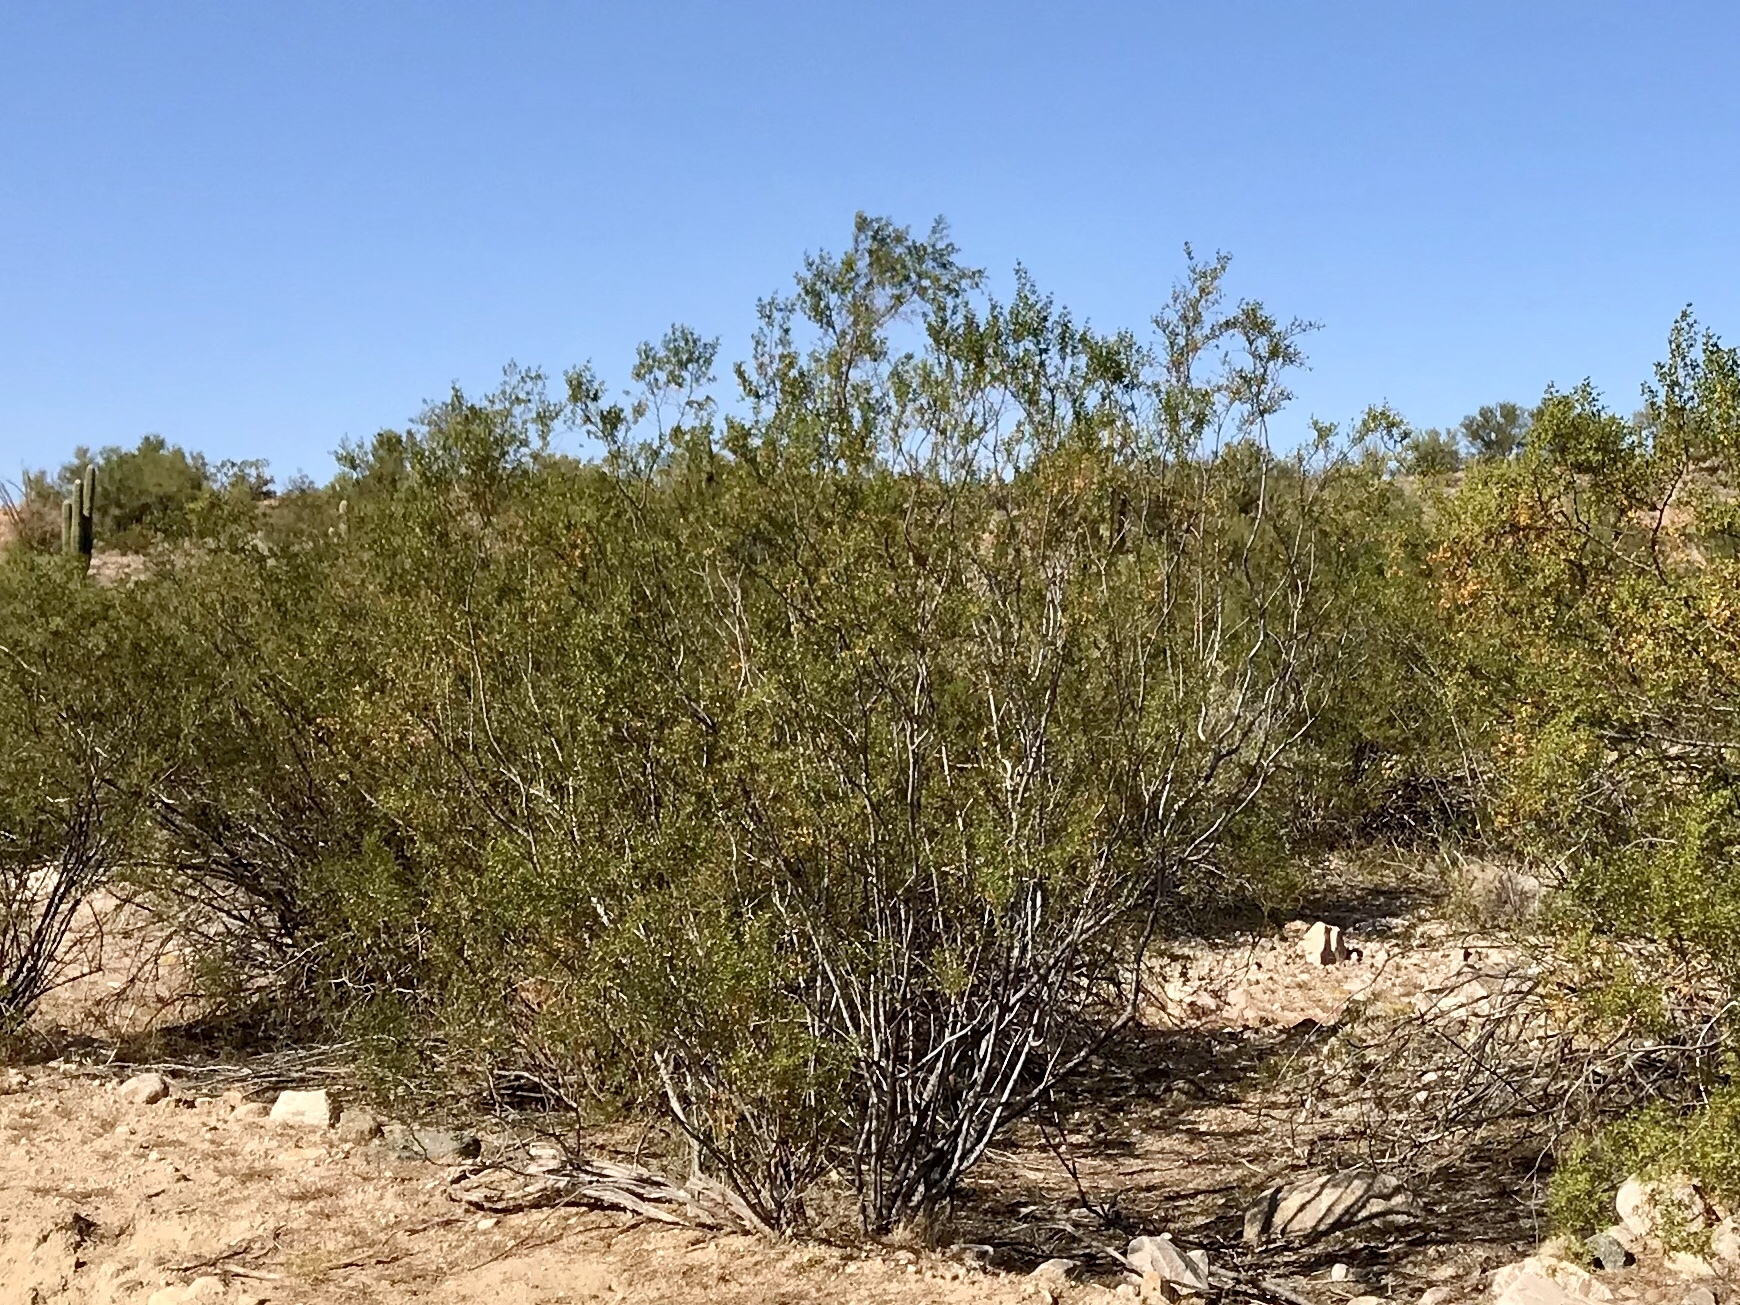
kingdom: Plantae
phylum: Tracheophyta
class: Magnoliopsida
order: Zygophyllales
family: Zygophyllaceae
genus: Larrea
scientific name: Larrea tridentata
